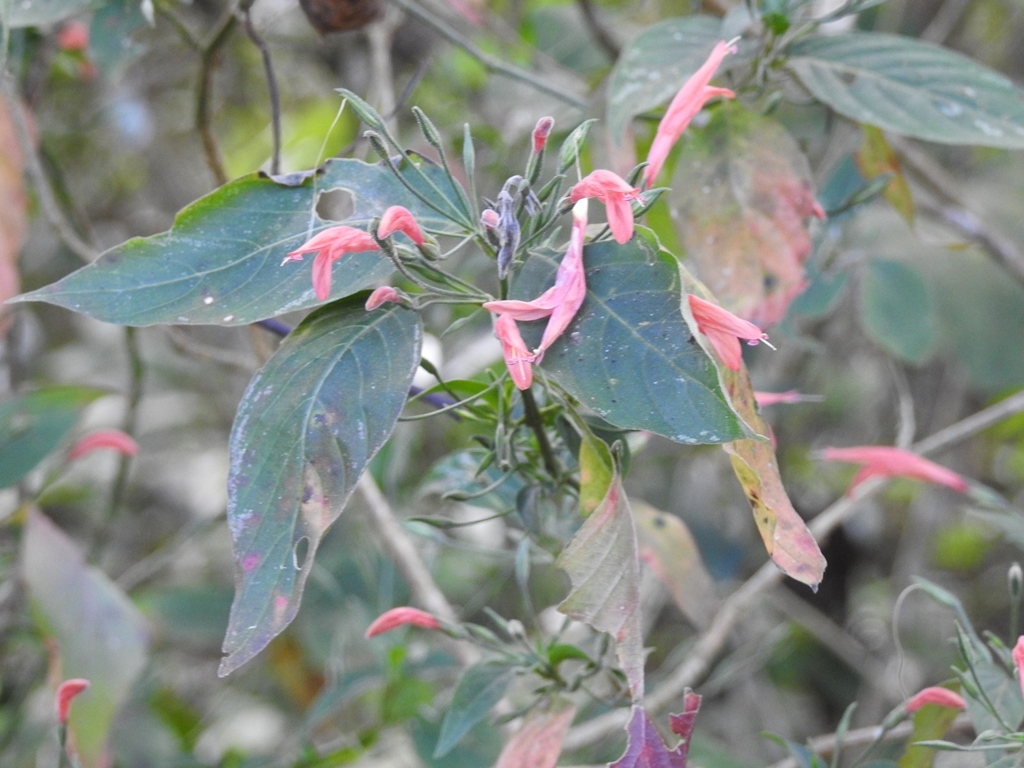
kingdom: Plantae
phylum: Tracheophyta
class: Magnoliopsida
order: Lamiales
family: Acanthaceae
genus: Dicliptera
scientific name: Dicliptera sciadephora
